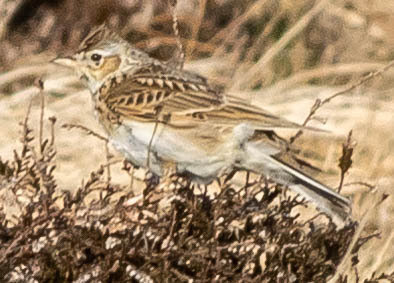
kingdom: Animalia
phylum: Chordata
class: Aves
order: Passeriformes
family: Alaudidae
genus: Alauda
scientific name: Alauda arvensis
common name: Eurasian skylark
